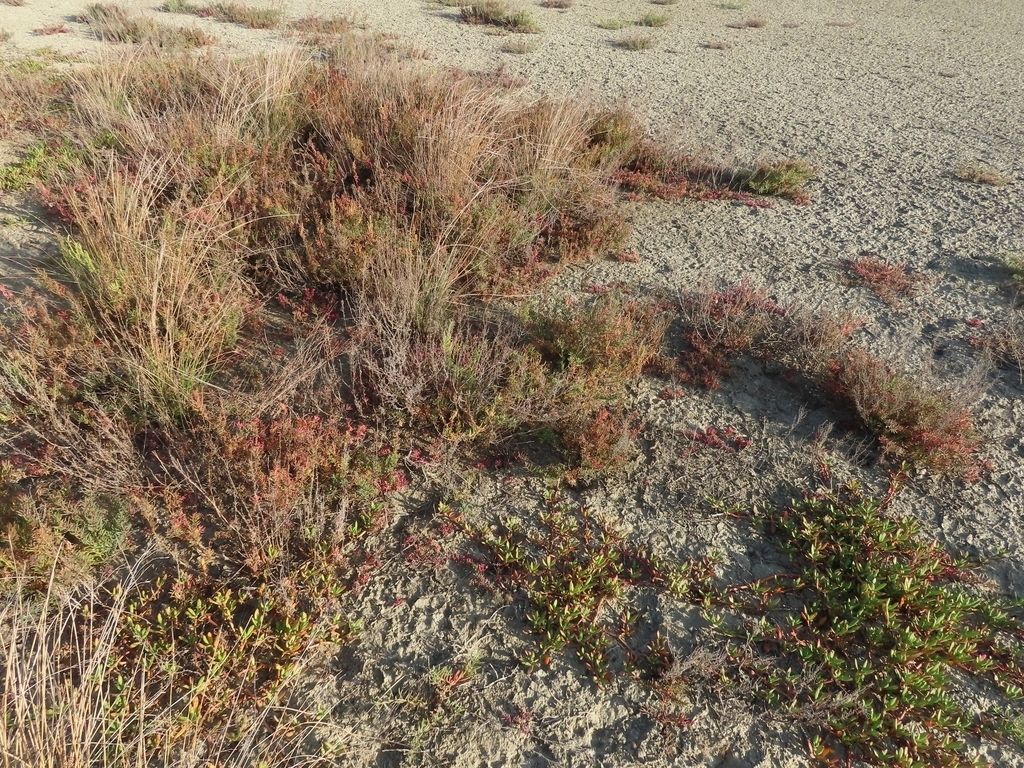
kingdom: Plantae
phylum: Tracheophyta
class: Magnoliopsida
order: Caryophyllales
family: Aizoaceae
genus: Sesuvium
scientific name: Sesuvium portulacastrum
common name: Sea-purslane
